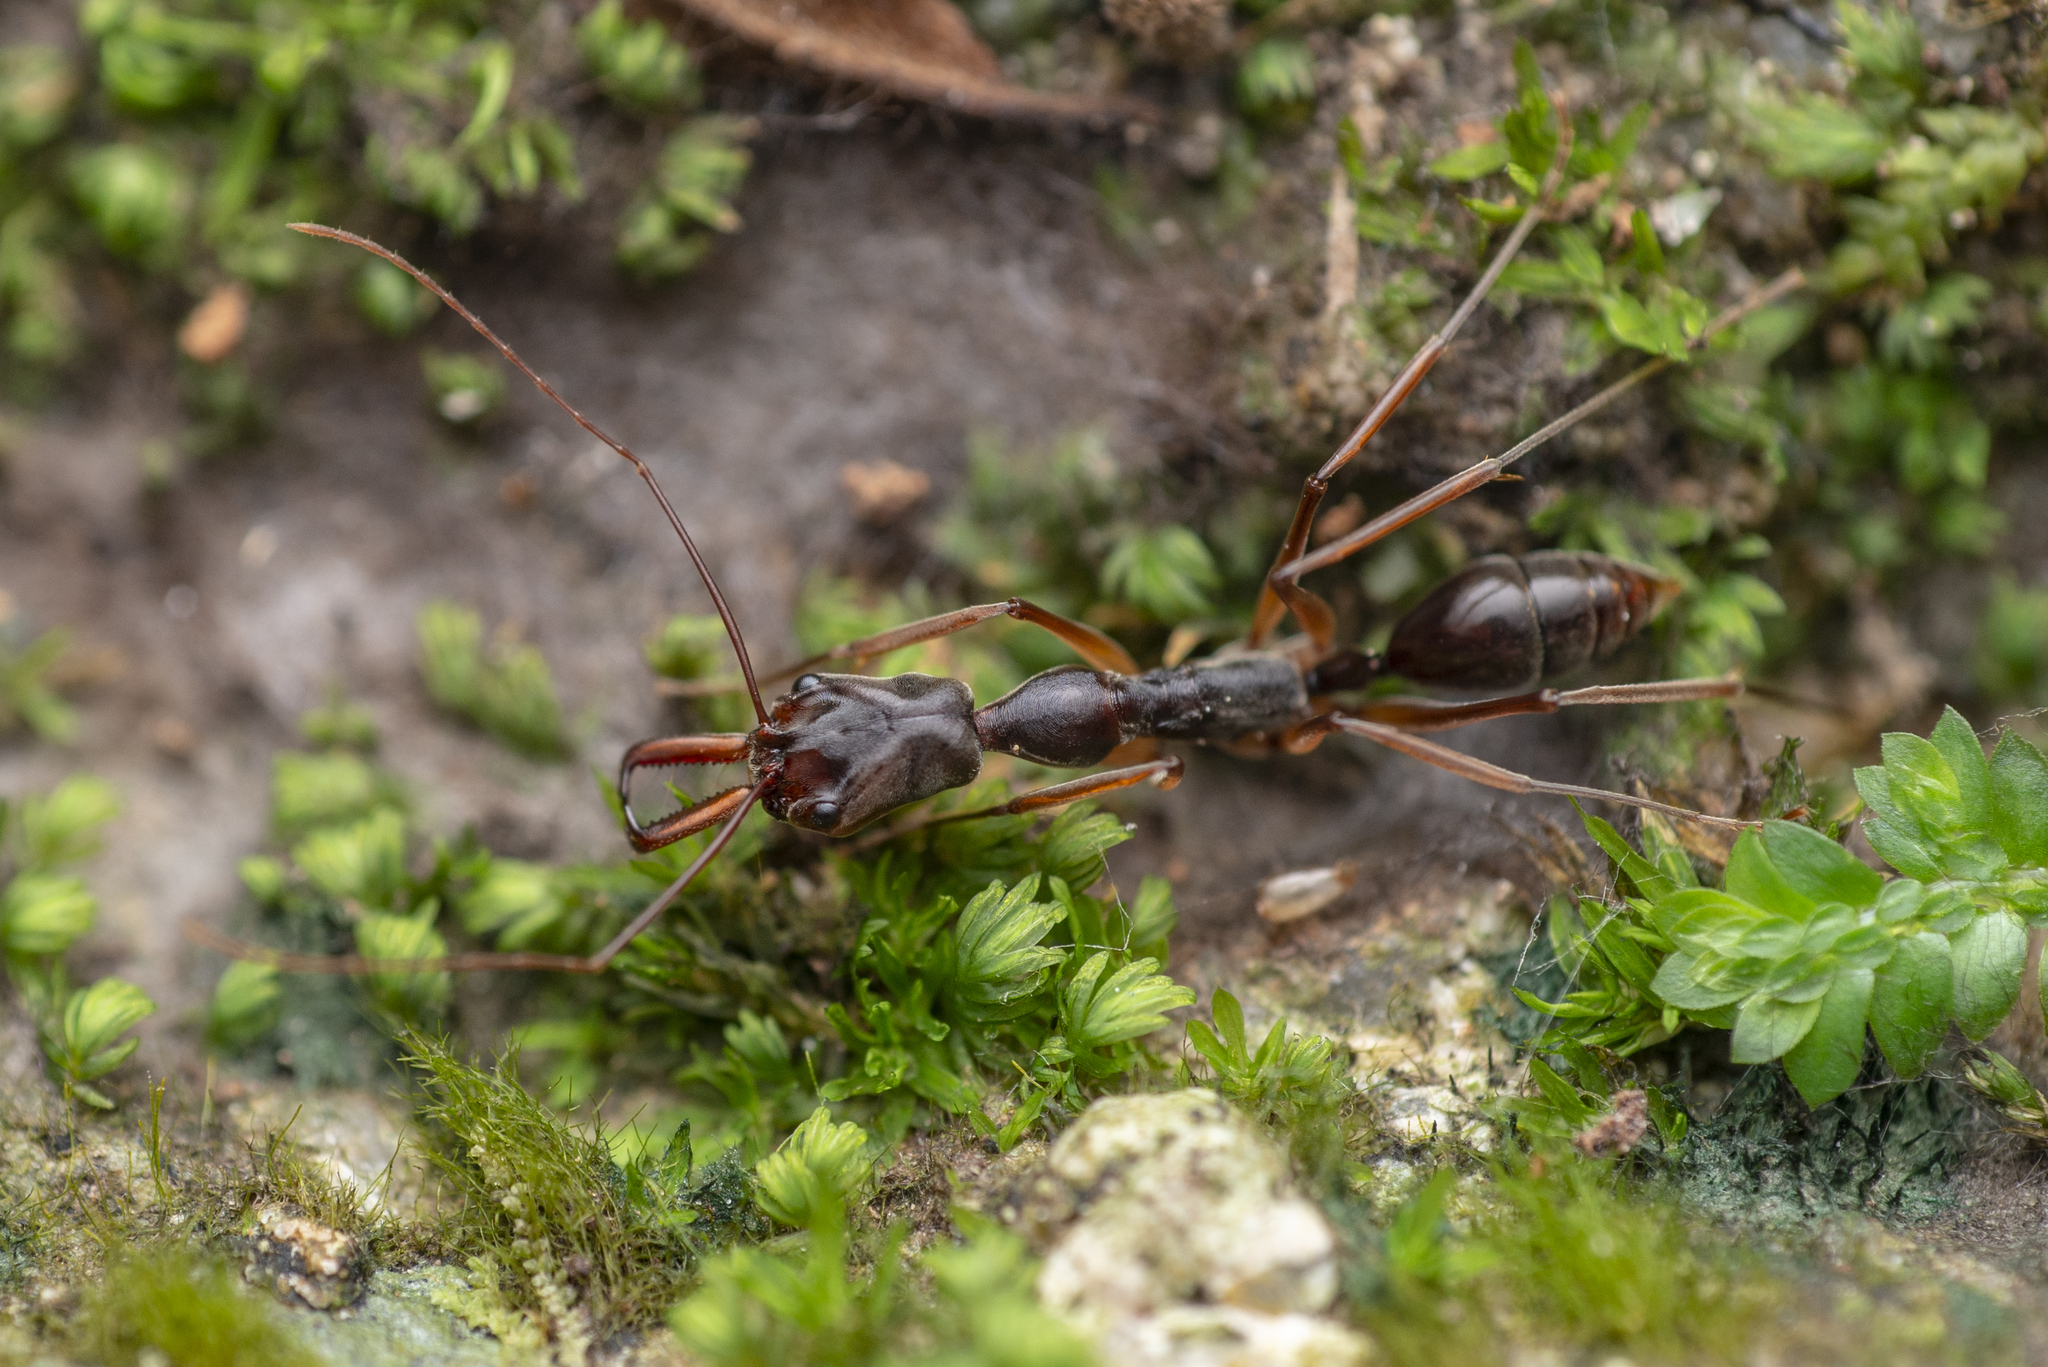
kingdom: Animalia
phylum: Arthropoda
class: Insecta
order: Hymenoptera
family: Formicidae
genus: Odontomachus
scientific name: Odontomachus silvestrii
